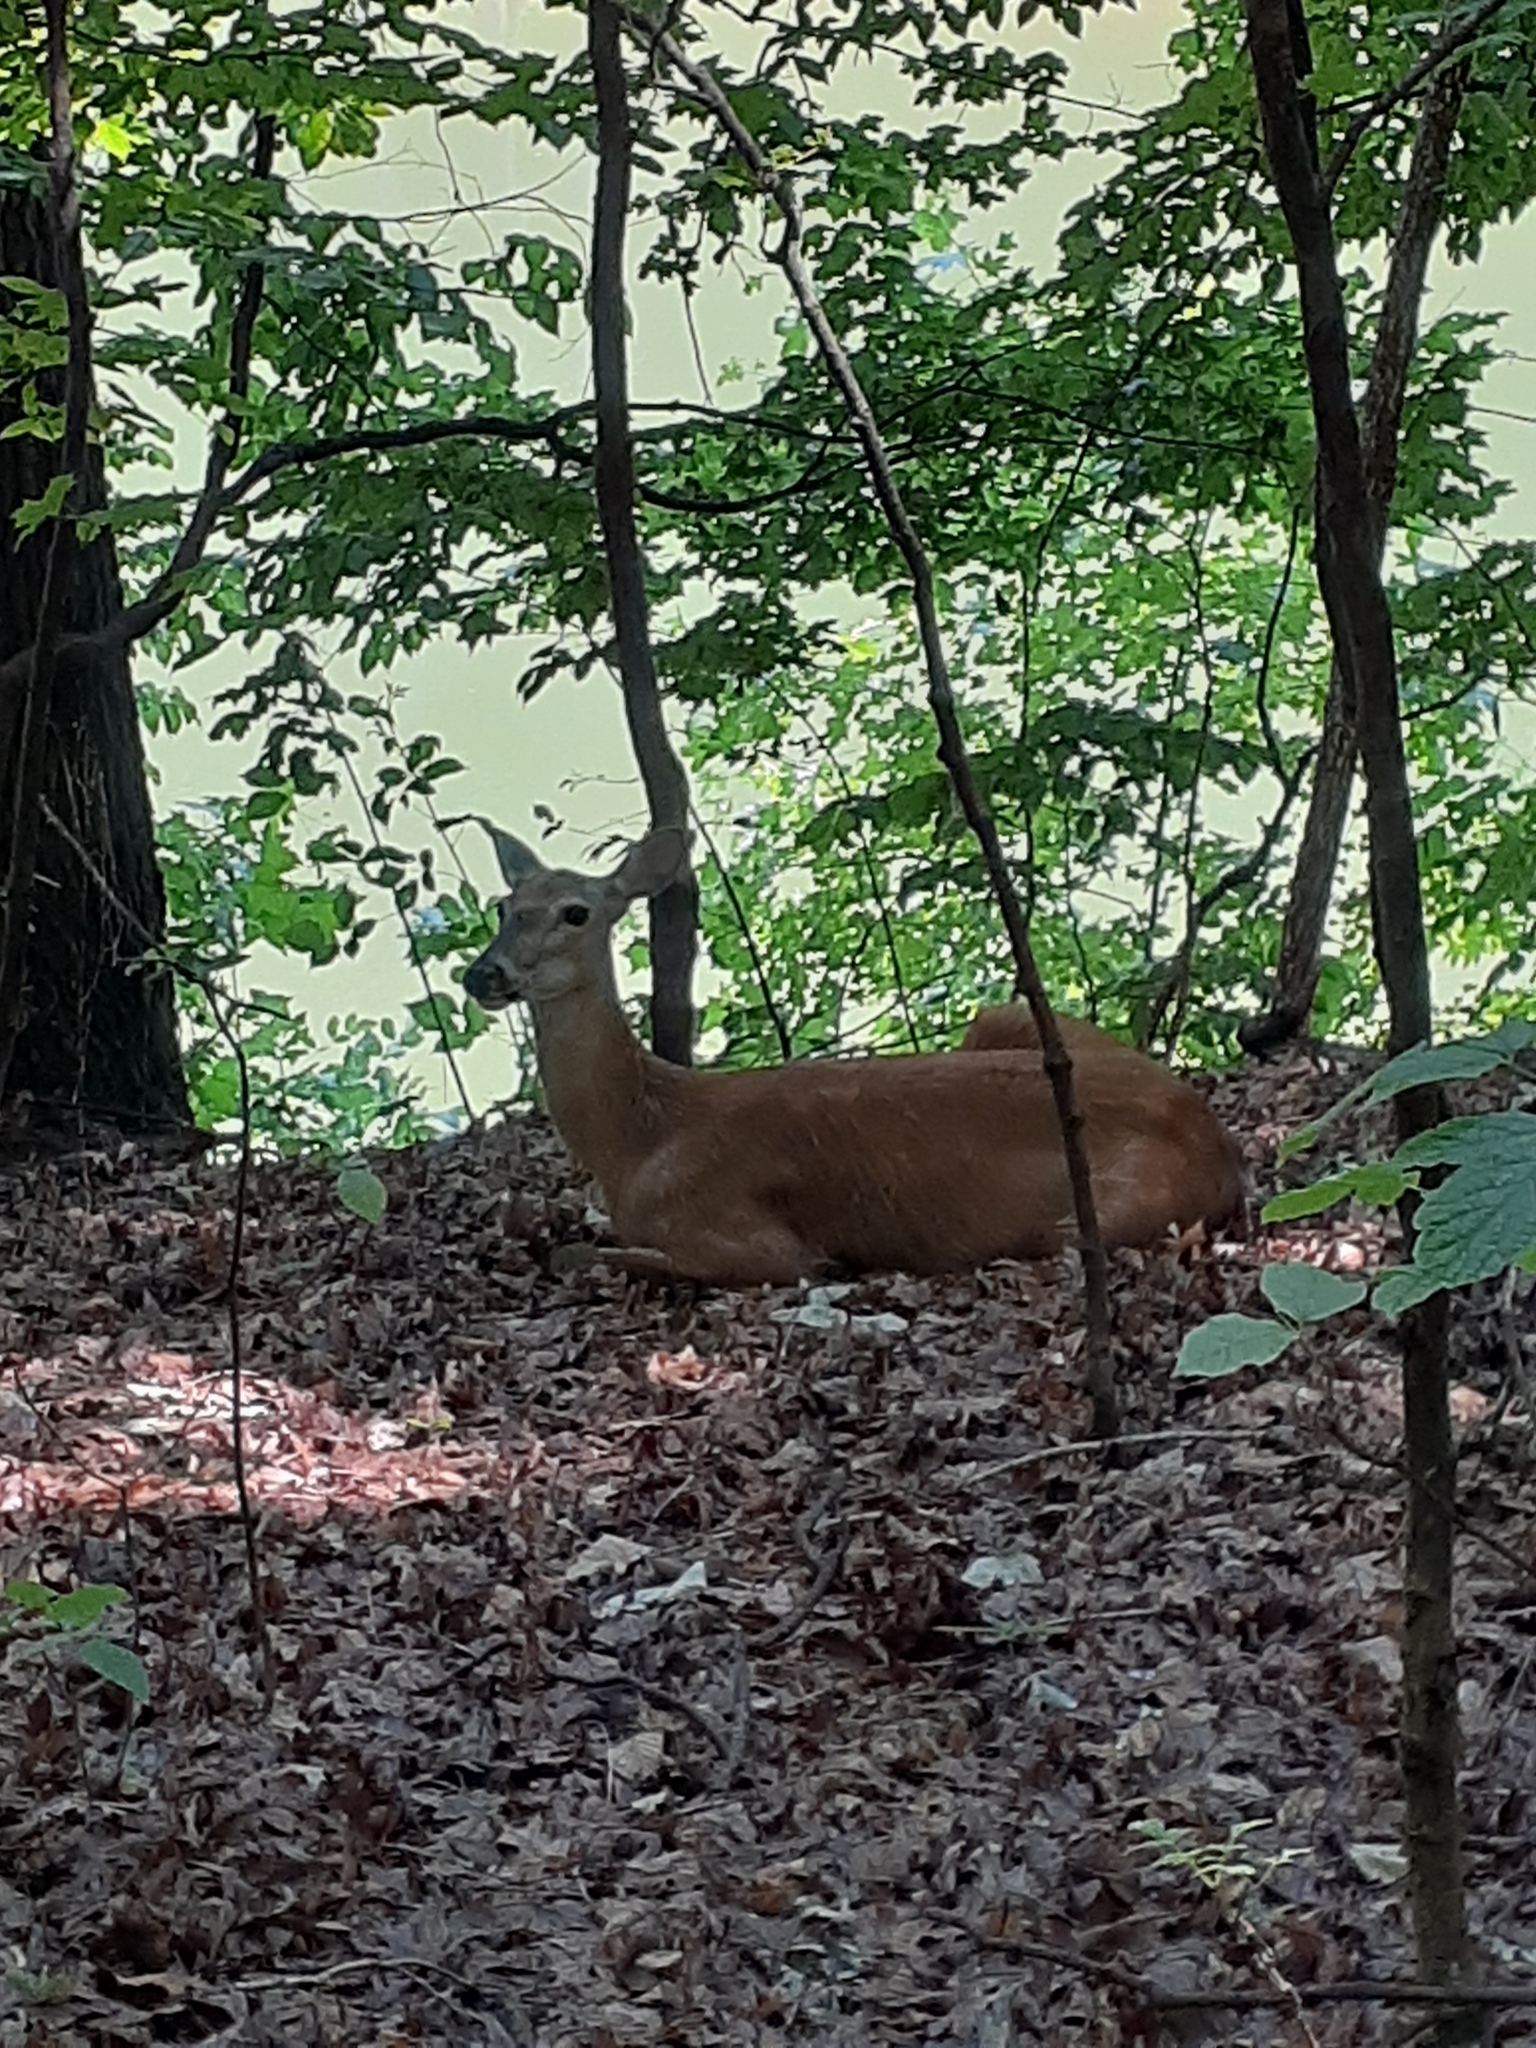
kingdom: Animalia
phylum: Chordata
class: Mammalia
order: Artiodactyla
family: Cervidae
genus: Odocoileus
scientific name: Odocoileus virginianus
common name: White-tailed deer
